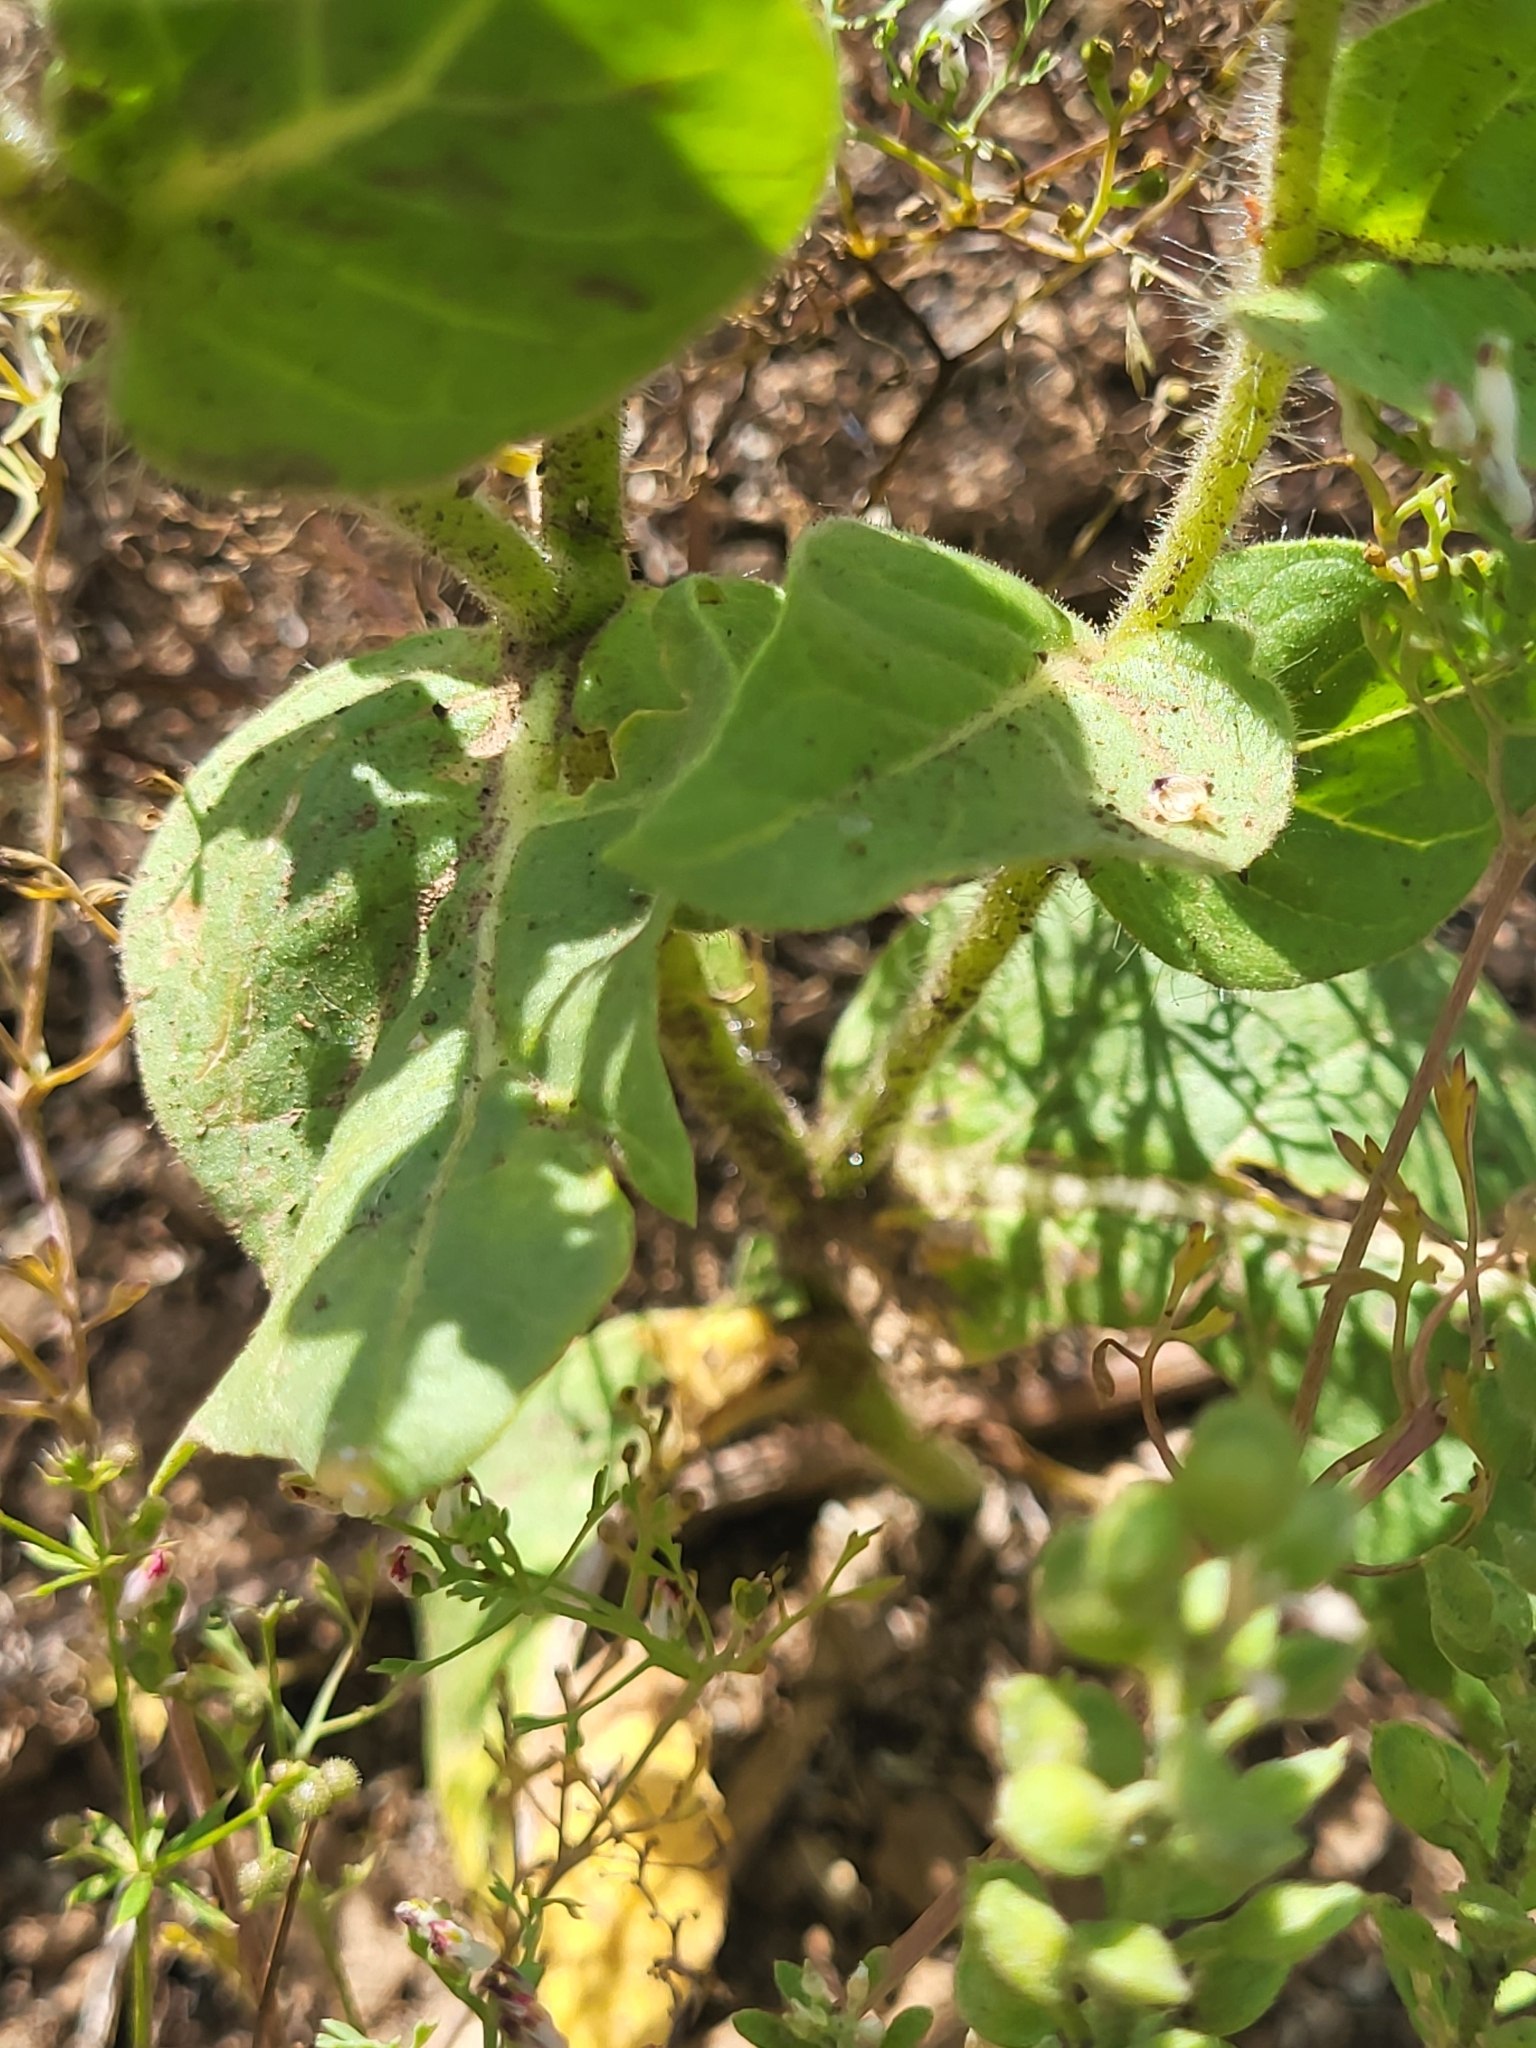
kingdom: Plantae
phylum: Tracheophyta
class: Magnoliopsida
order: Solanales
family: Solanaceae
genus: Hyoscyamus
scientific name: Hyoscyamus niger
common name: Henbane
